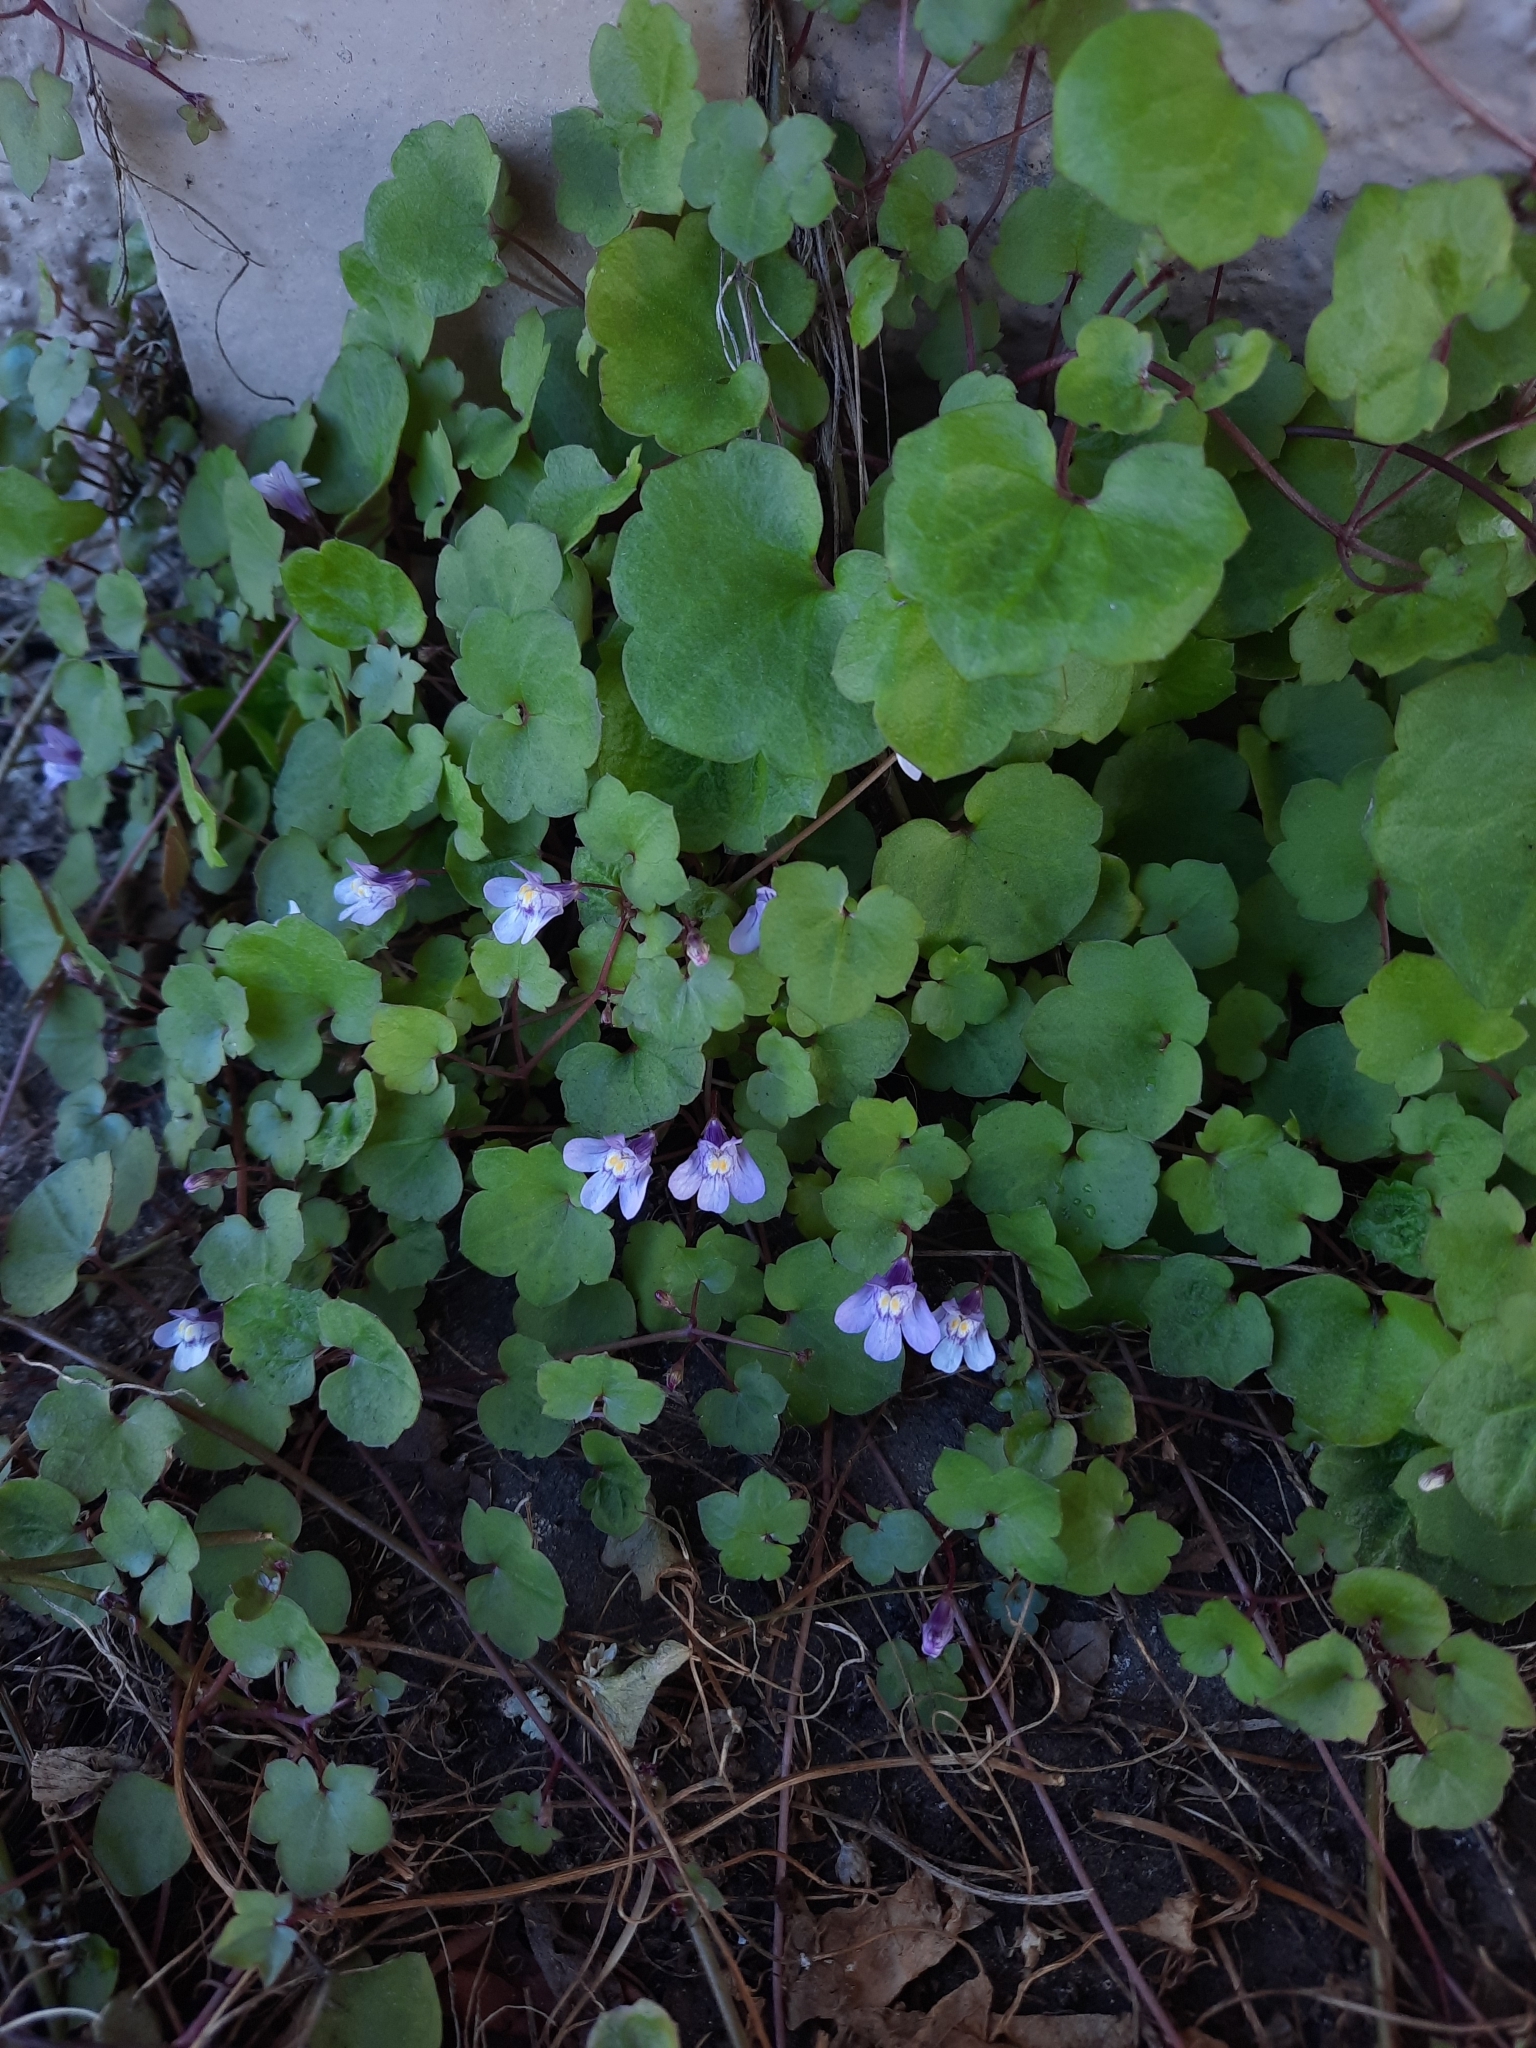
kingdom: Plantae
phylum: Tracheophyta
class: Magnoliopsida
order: Lamiales
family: Plantaginaceae
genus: Cymbalaria
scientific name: Cymbalaria muralis
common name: Ivy-leaved toadflax
